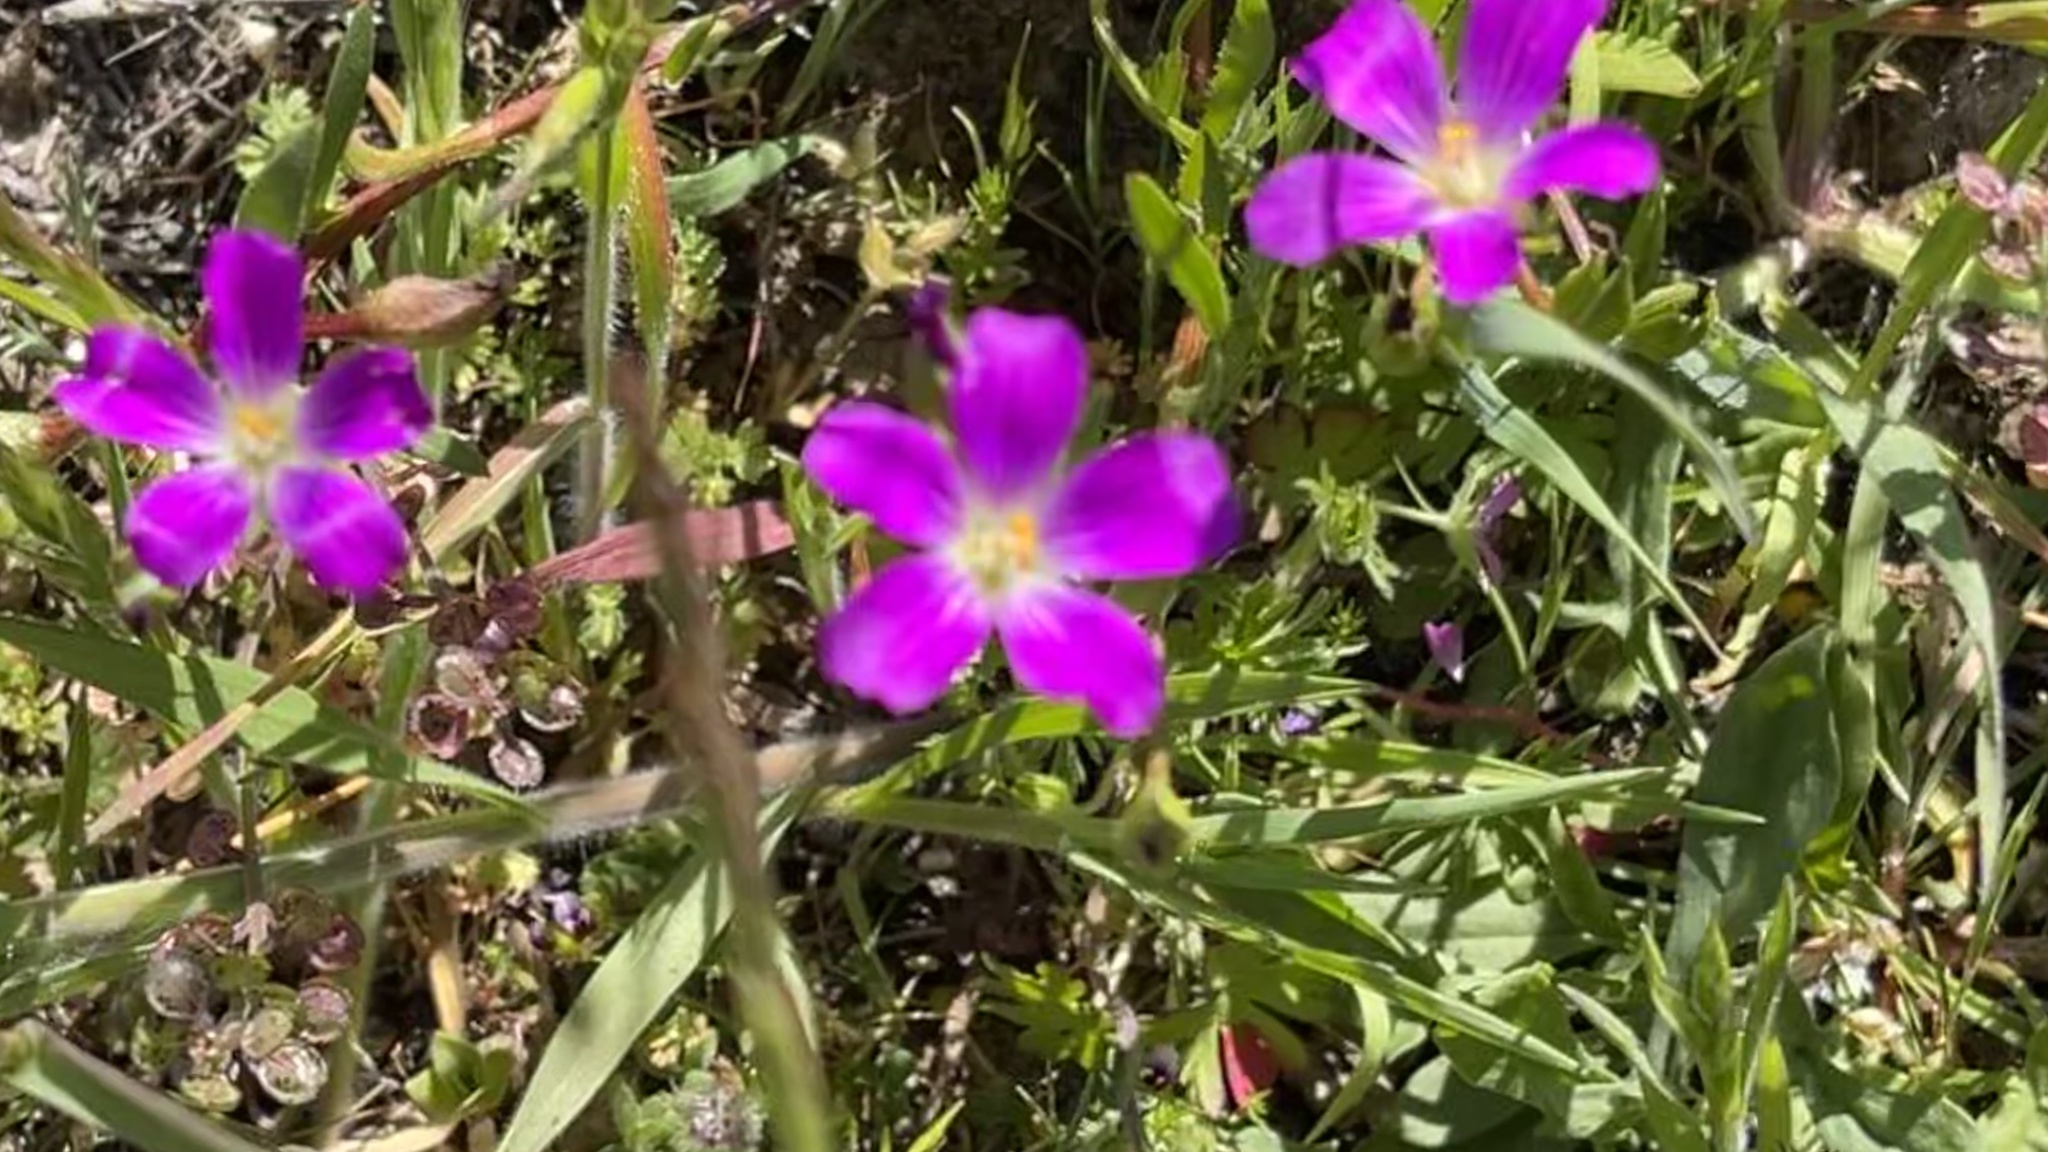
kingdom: Plantae
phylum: Tracheophyta
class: Magnoliopsida
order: Caryophyllales
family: Montiaceae
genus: Calandrinia
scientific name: Calandrinia menziesii
